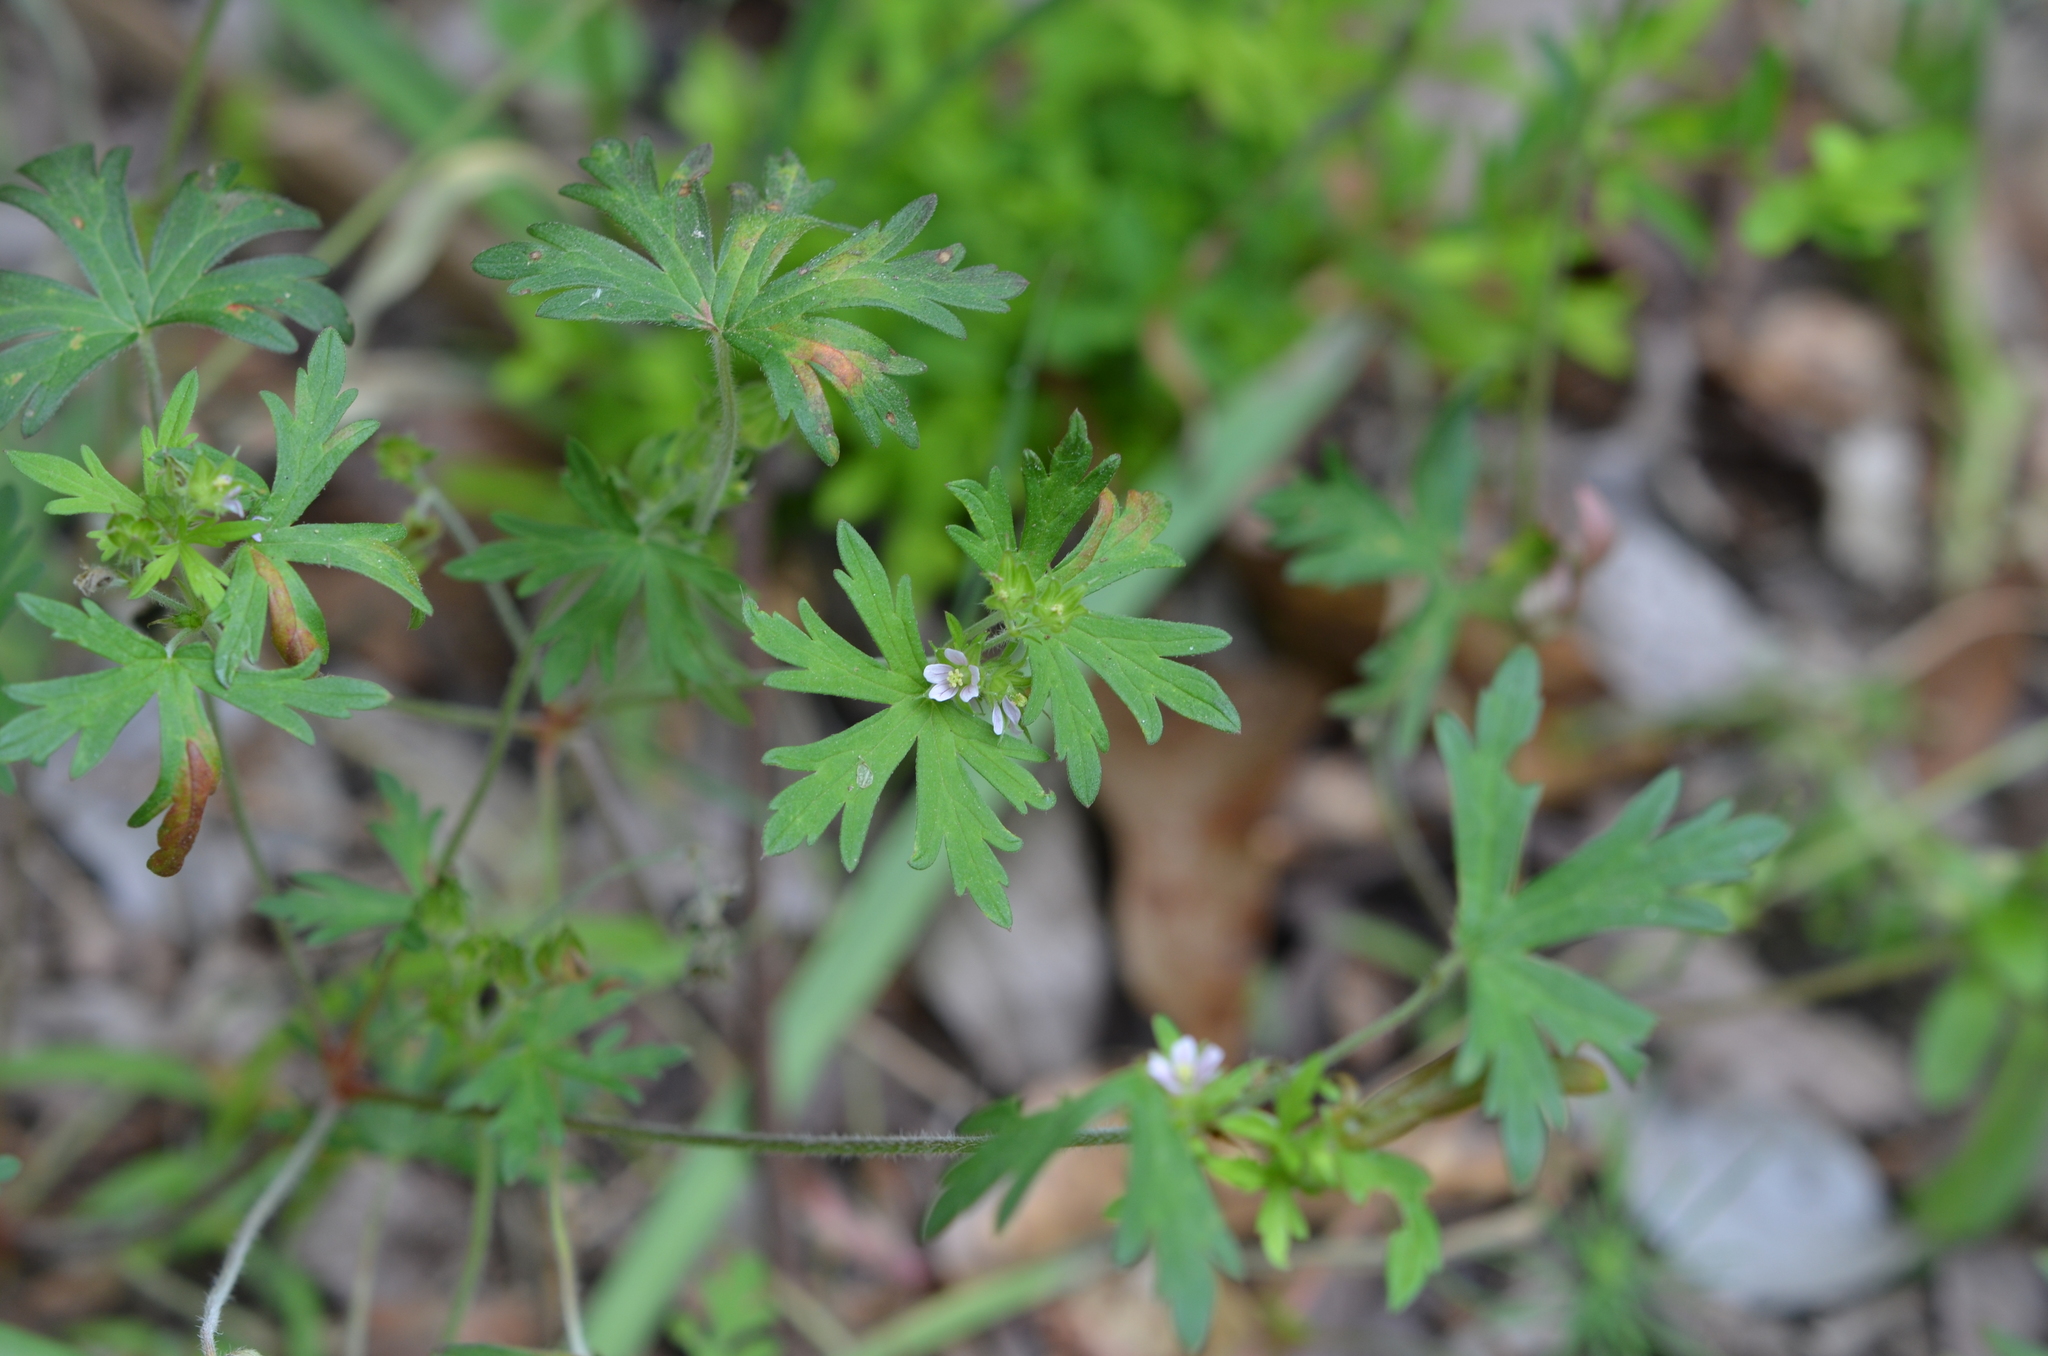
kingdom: Plantae
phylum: Tracheophyta
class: Magnoliopsida
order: Geraniales
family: Geraniaceae
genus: Geranium
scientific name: Geranium carolinianum
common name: Carolina crane's-bill
